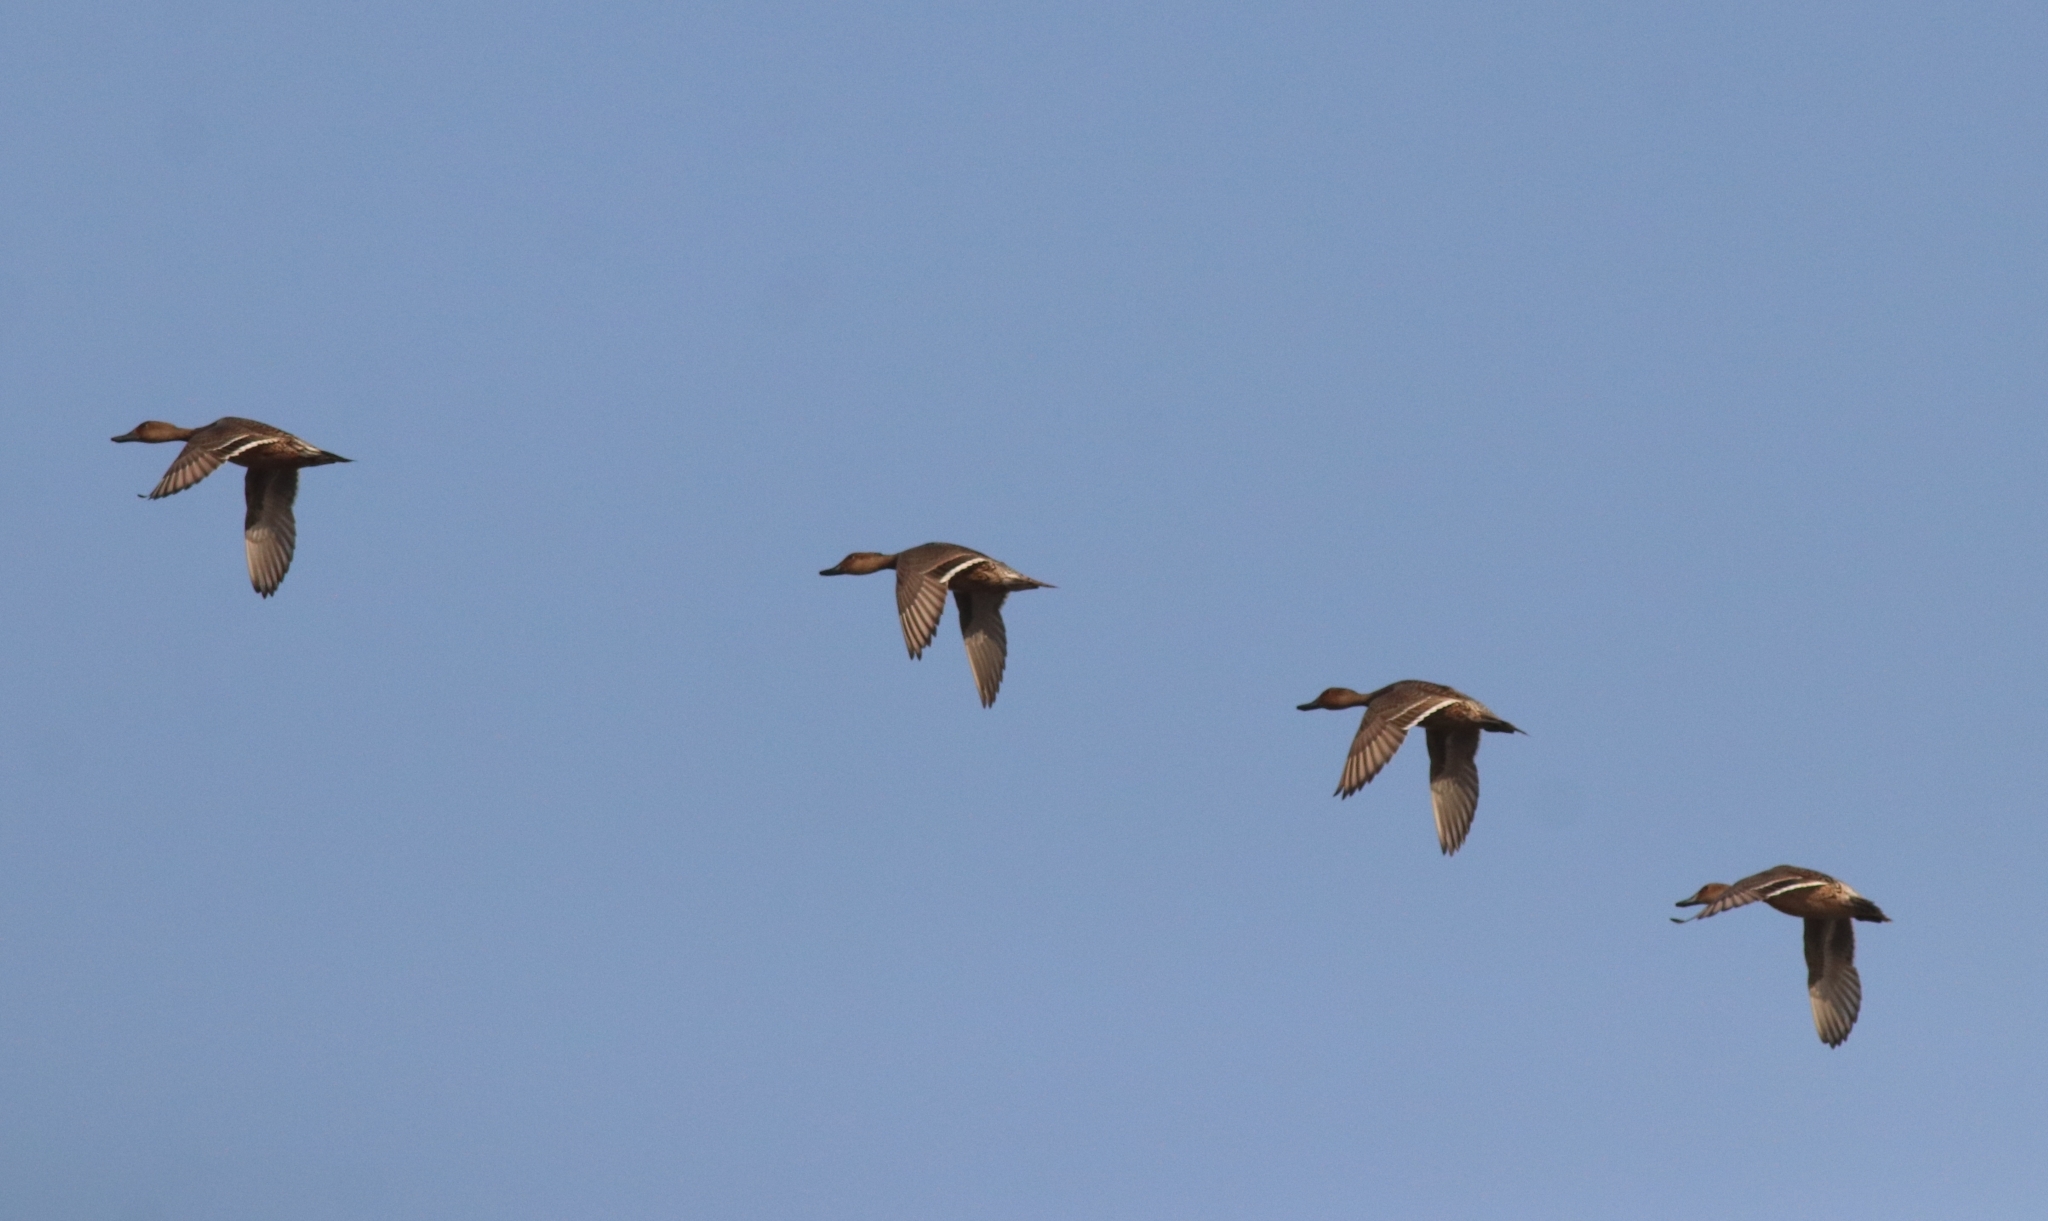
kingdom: Animalia
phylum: Chordata
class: Aves
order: Anseriformes
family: Anatidae
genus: Anas
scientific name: Anas acuta
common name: Northern pintail
